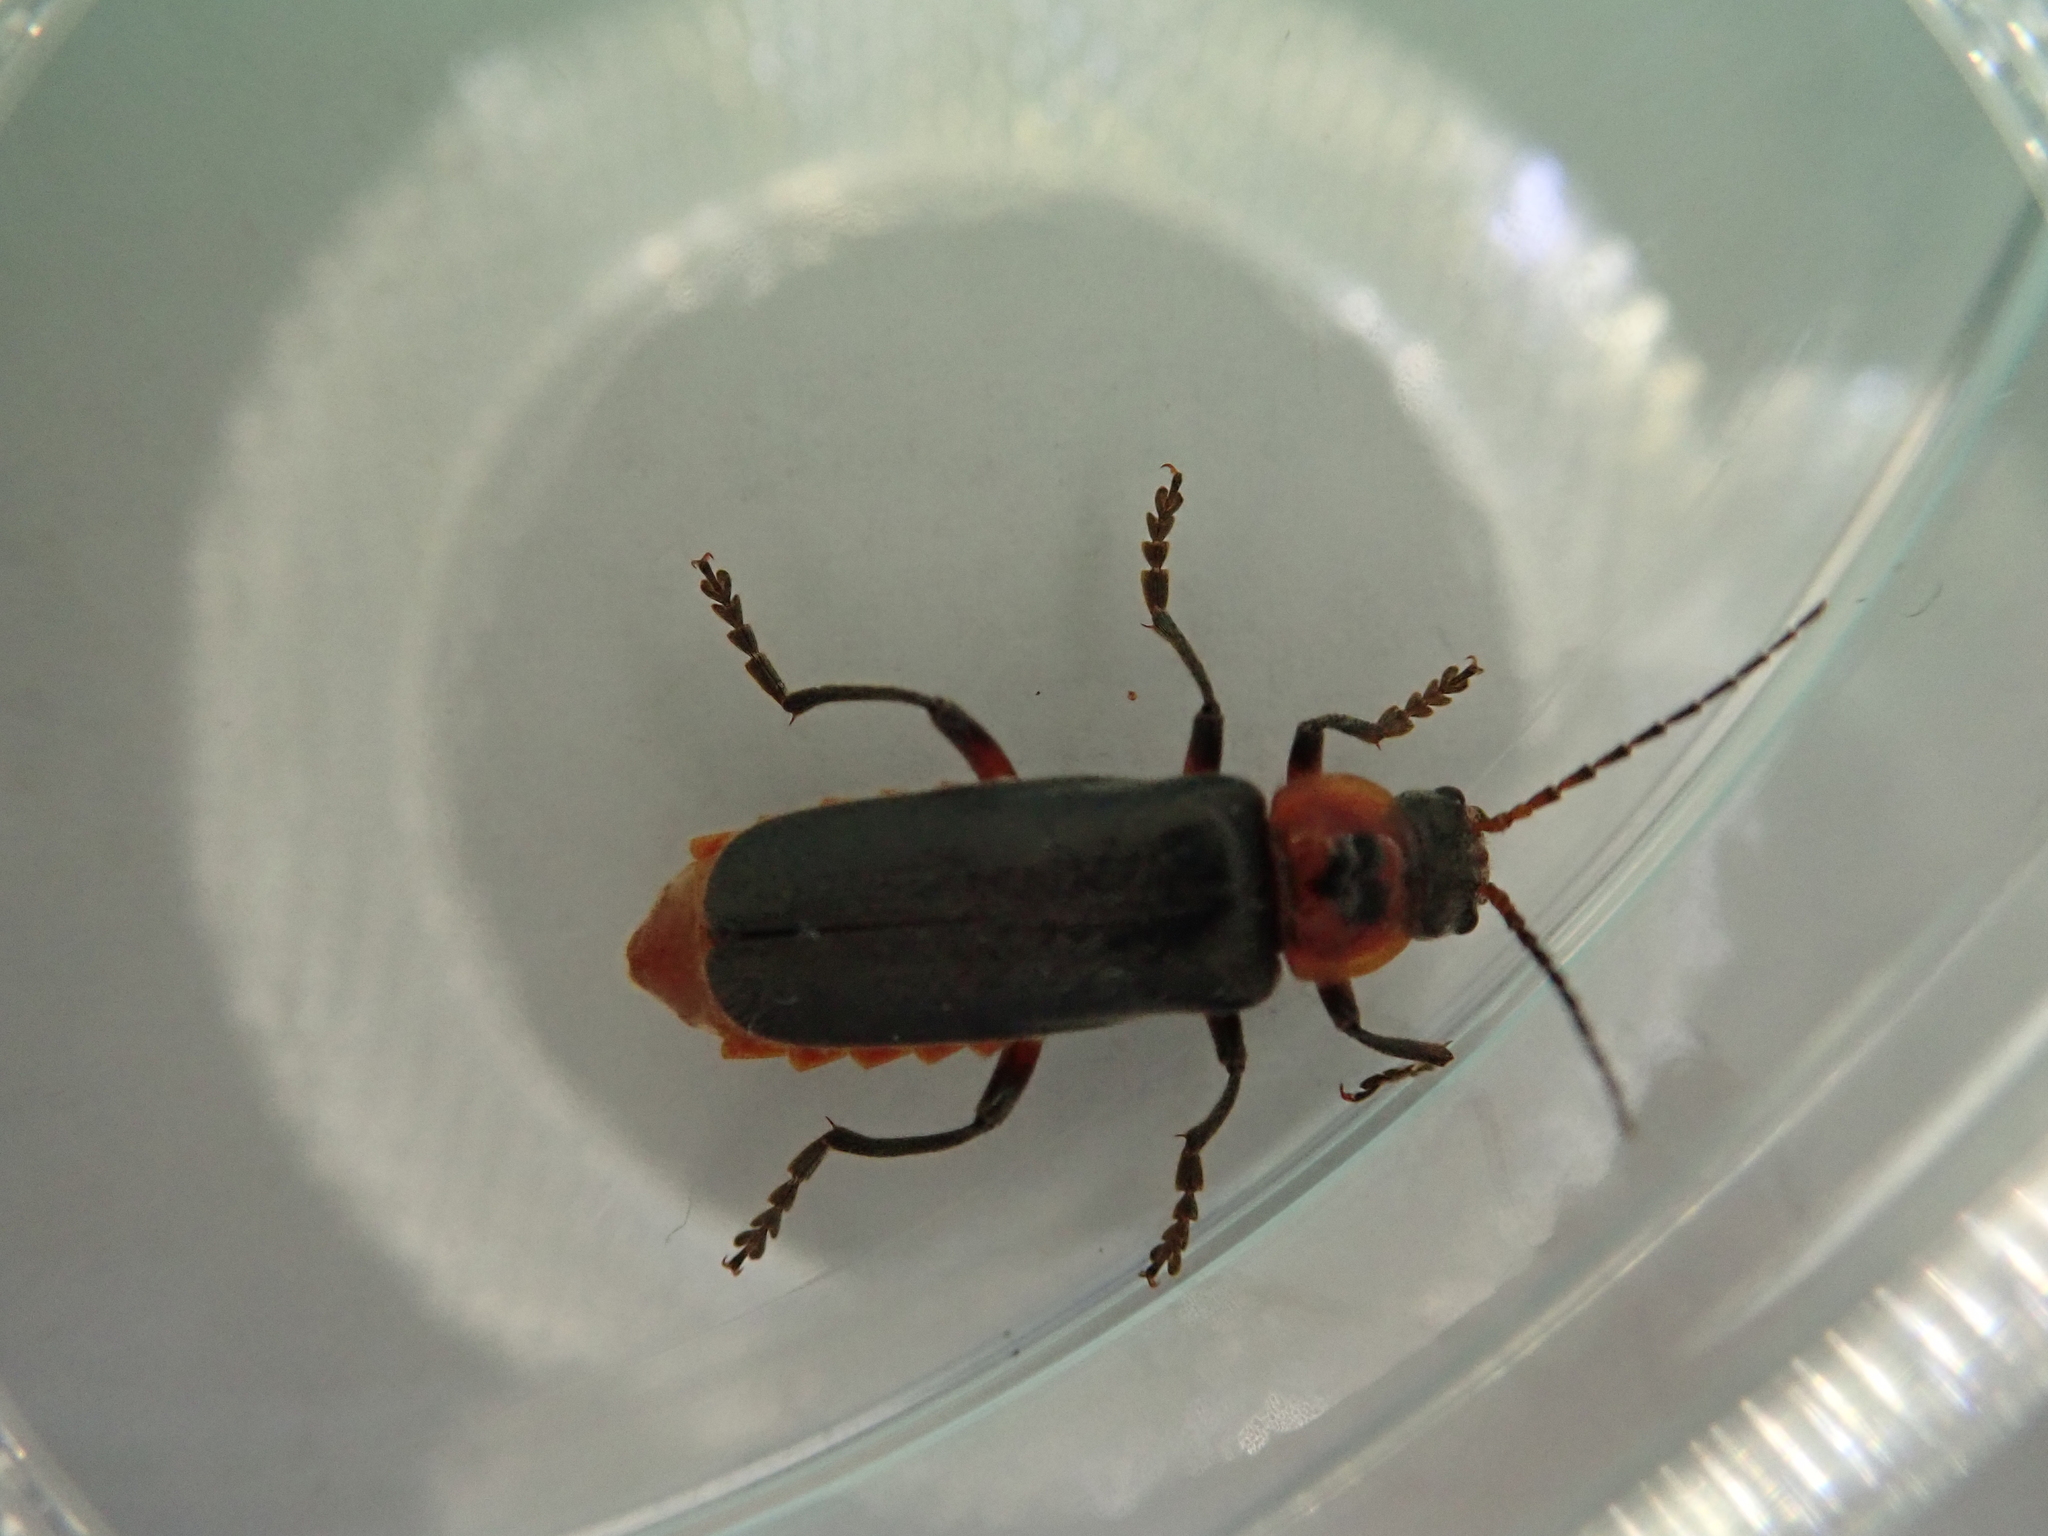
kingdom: Animalia
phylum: Arthropoda
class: Insecta
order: Coleoptera
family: Cantharidae
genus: Cantharis
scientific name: Cantharis rustica
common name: Soldier beetle
